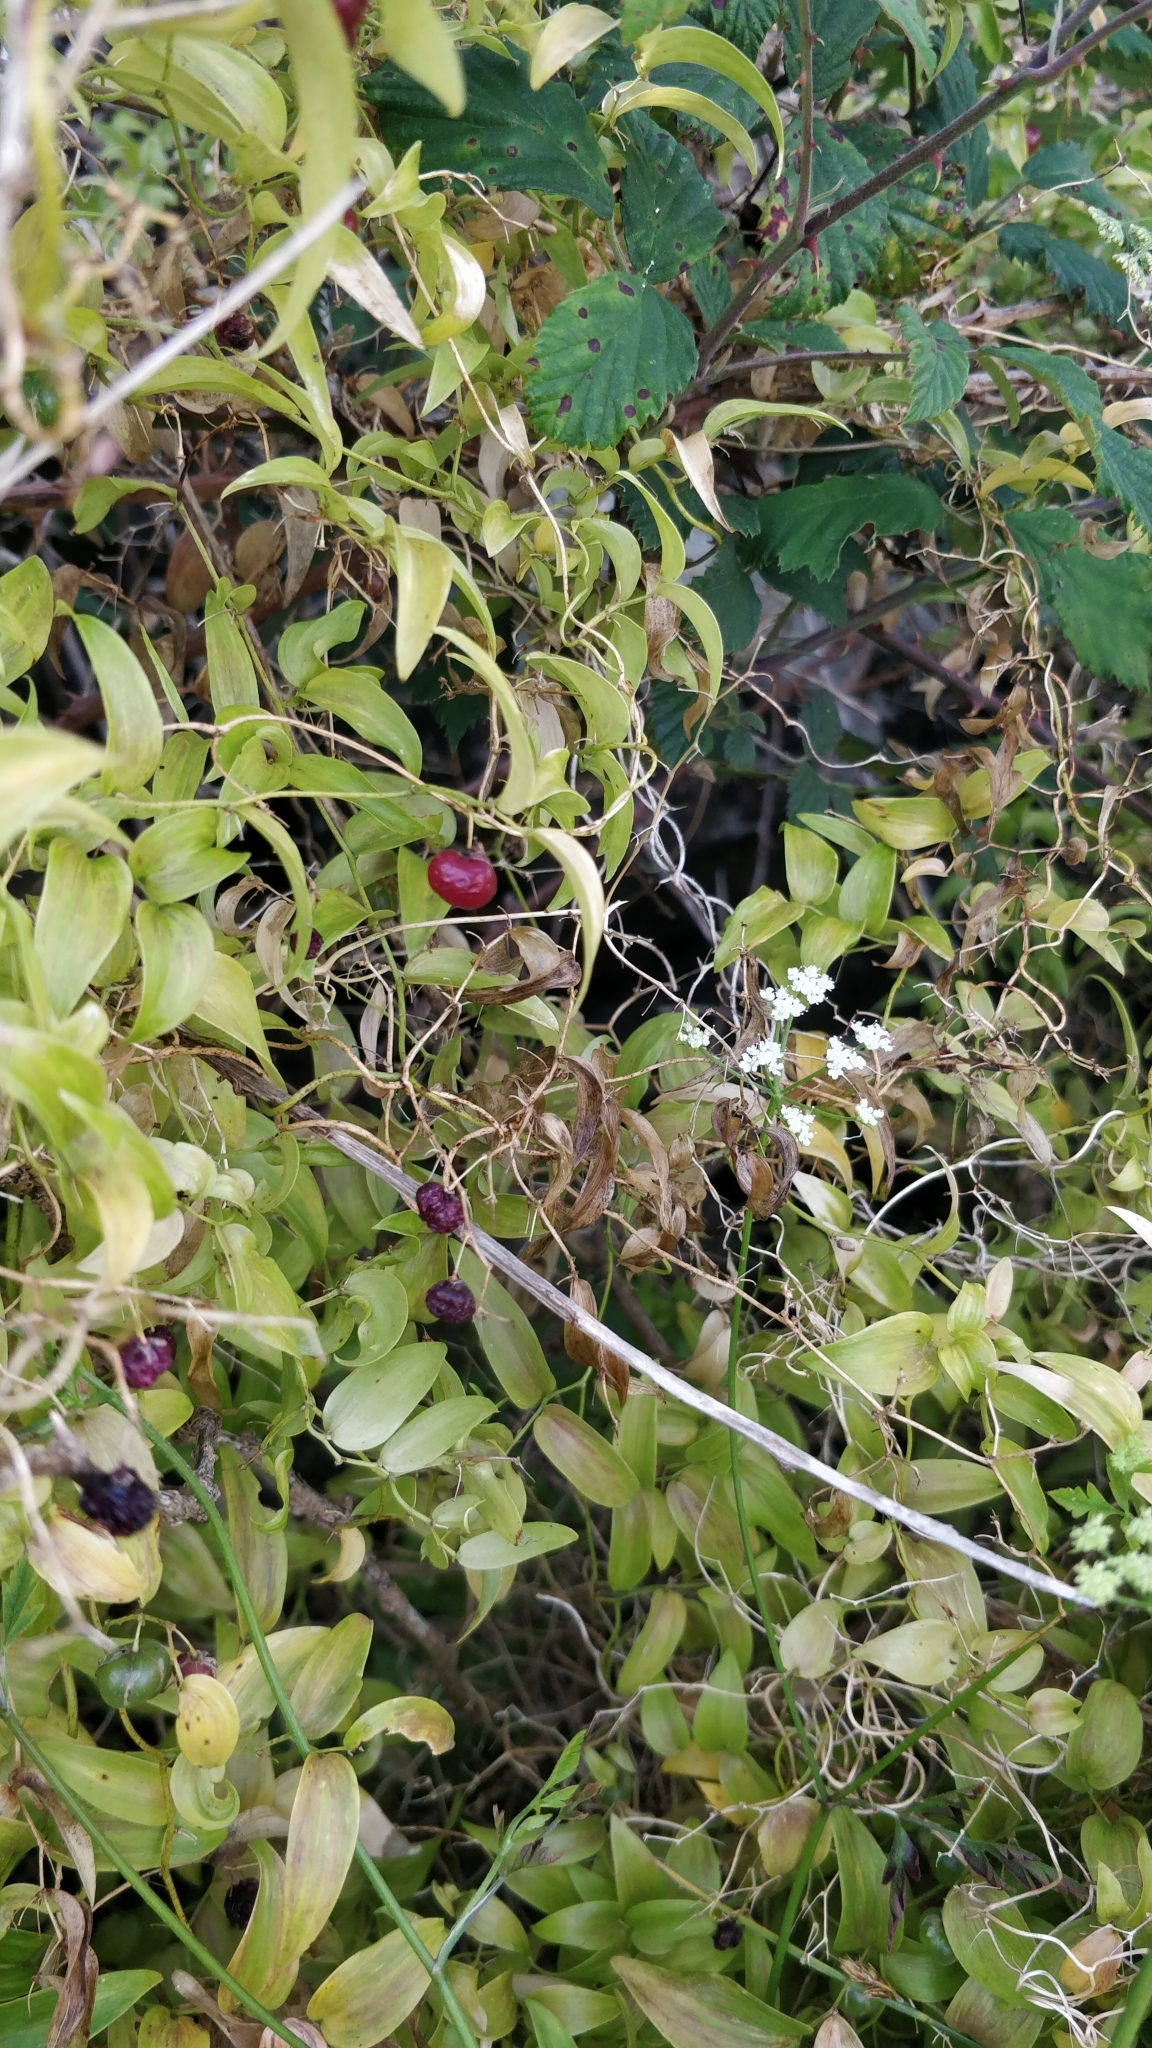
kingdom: Plantae
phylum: Tracheophyta
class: Liliopsida
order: Asparagales
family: Asparagaceae
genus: Asparagus
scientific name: Asparagus asparagoides
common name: African asparagus fern
